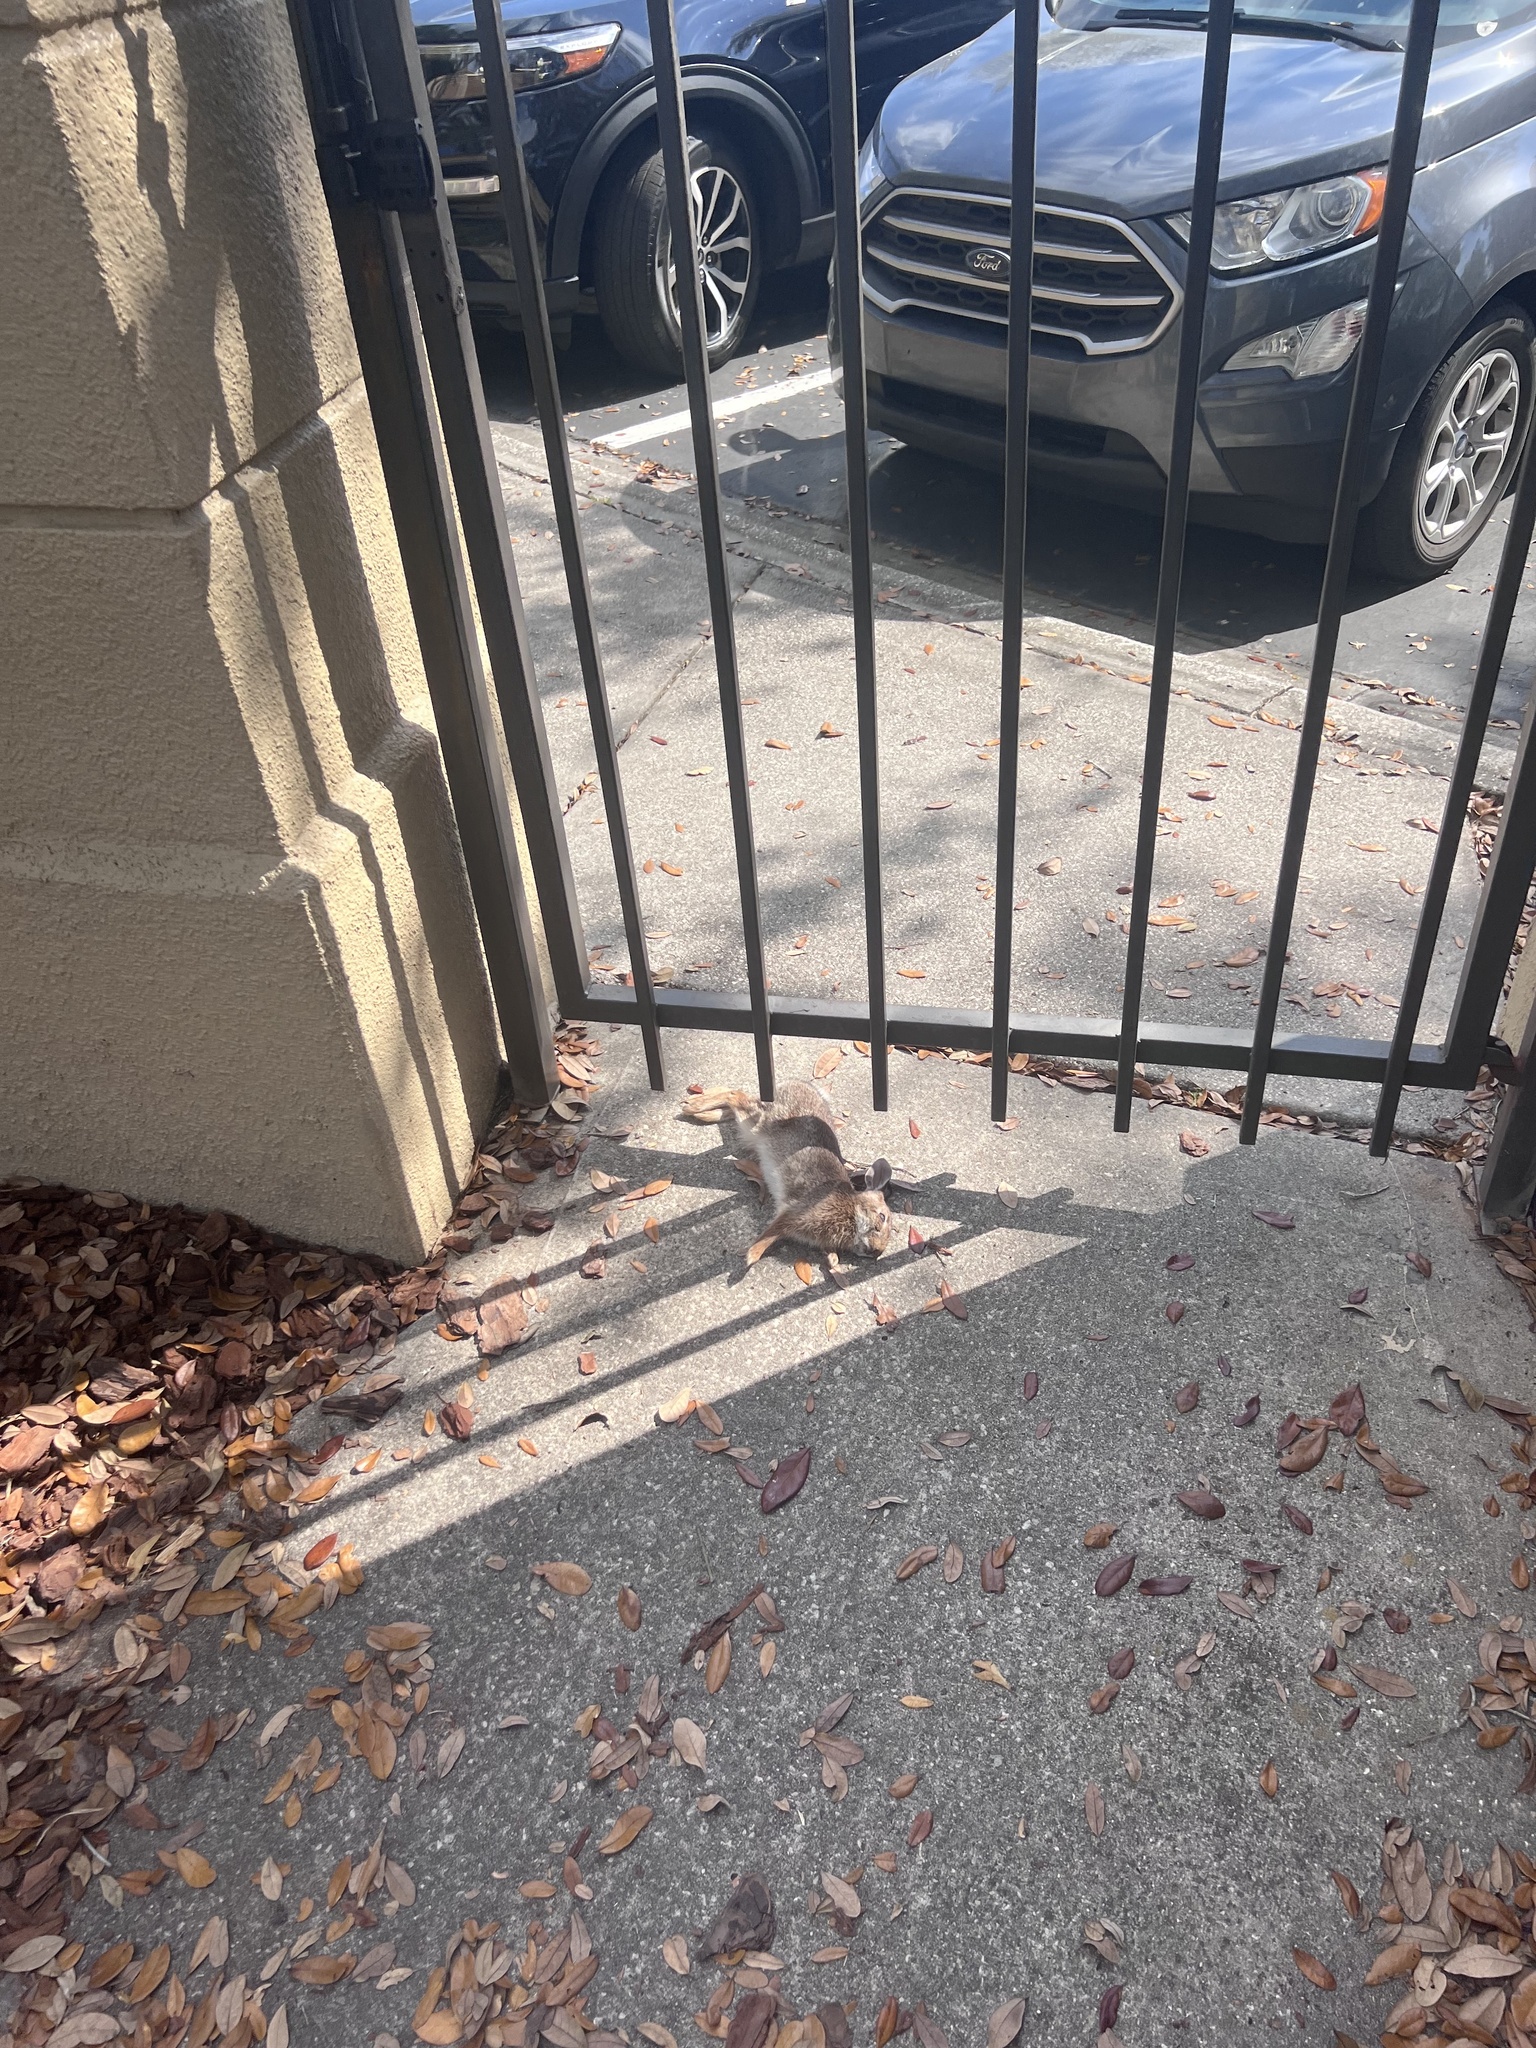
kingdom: Animalia
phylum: Chordata
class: Mammalia
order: Lagomorpha
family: Leporidae
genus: Sylvilagus
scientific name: Sylvilagus floridanus
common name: Eastern cottontail
